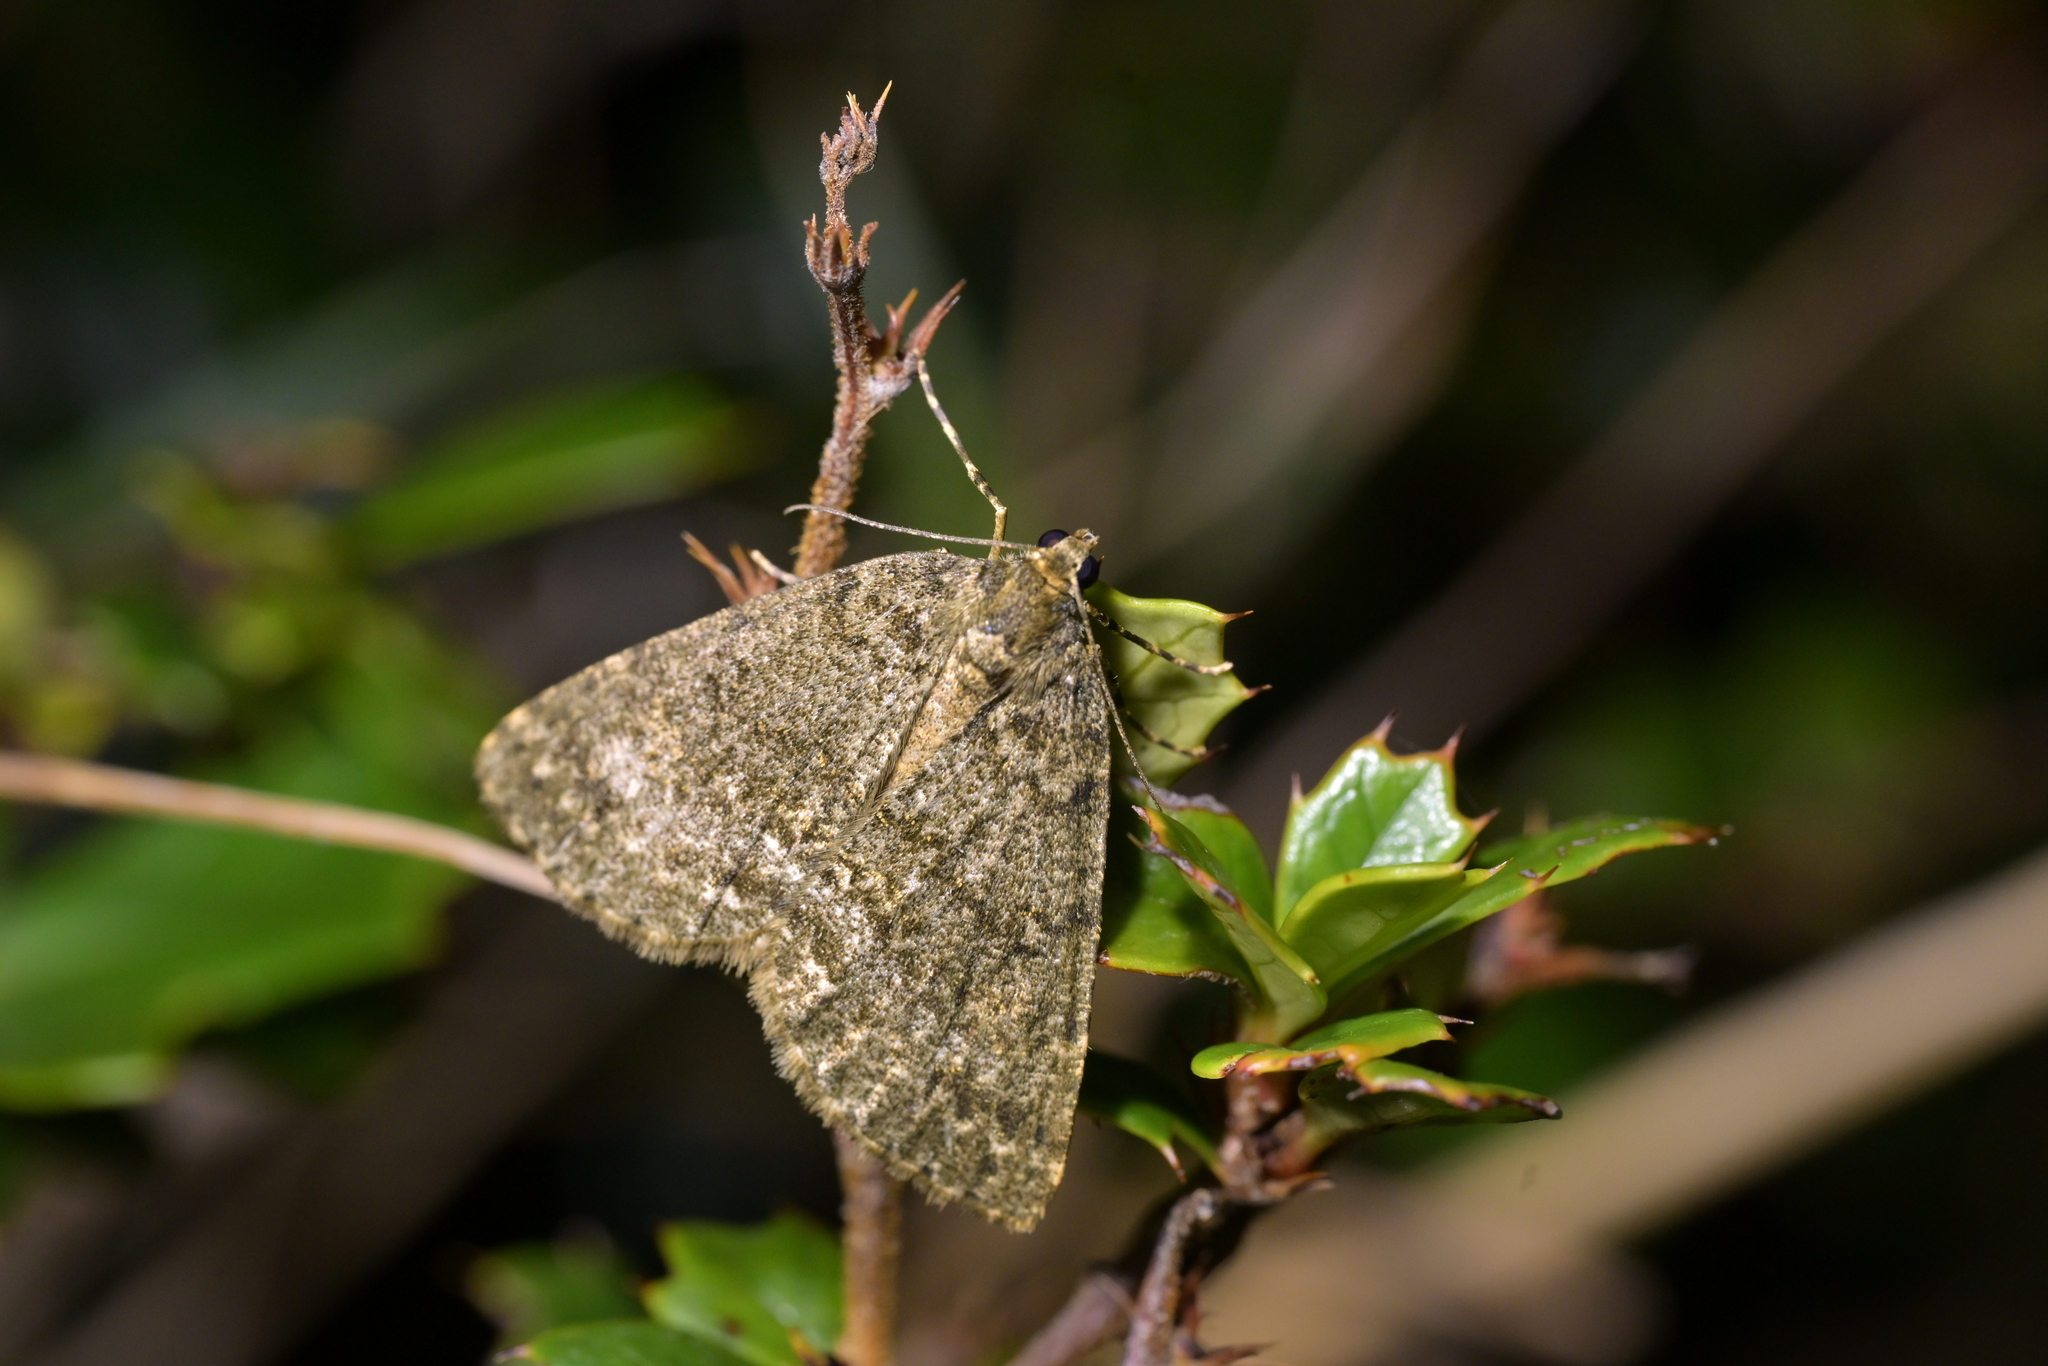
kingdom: Animalia
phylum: Arthropoda
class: Insecta
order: Lepidoptera
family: Geometridae
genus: Pseudocoremia
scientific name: Pseudocoremia indistincta
